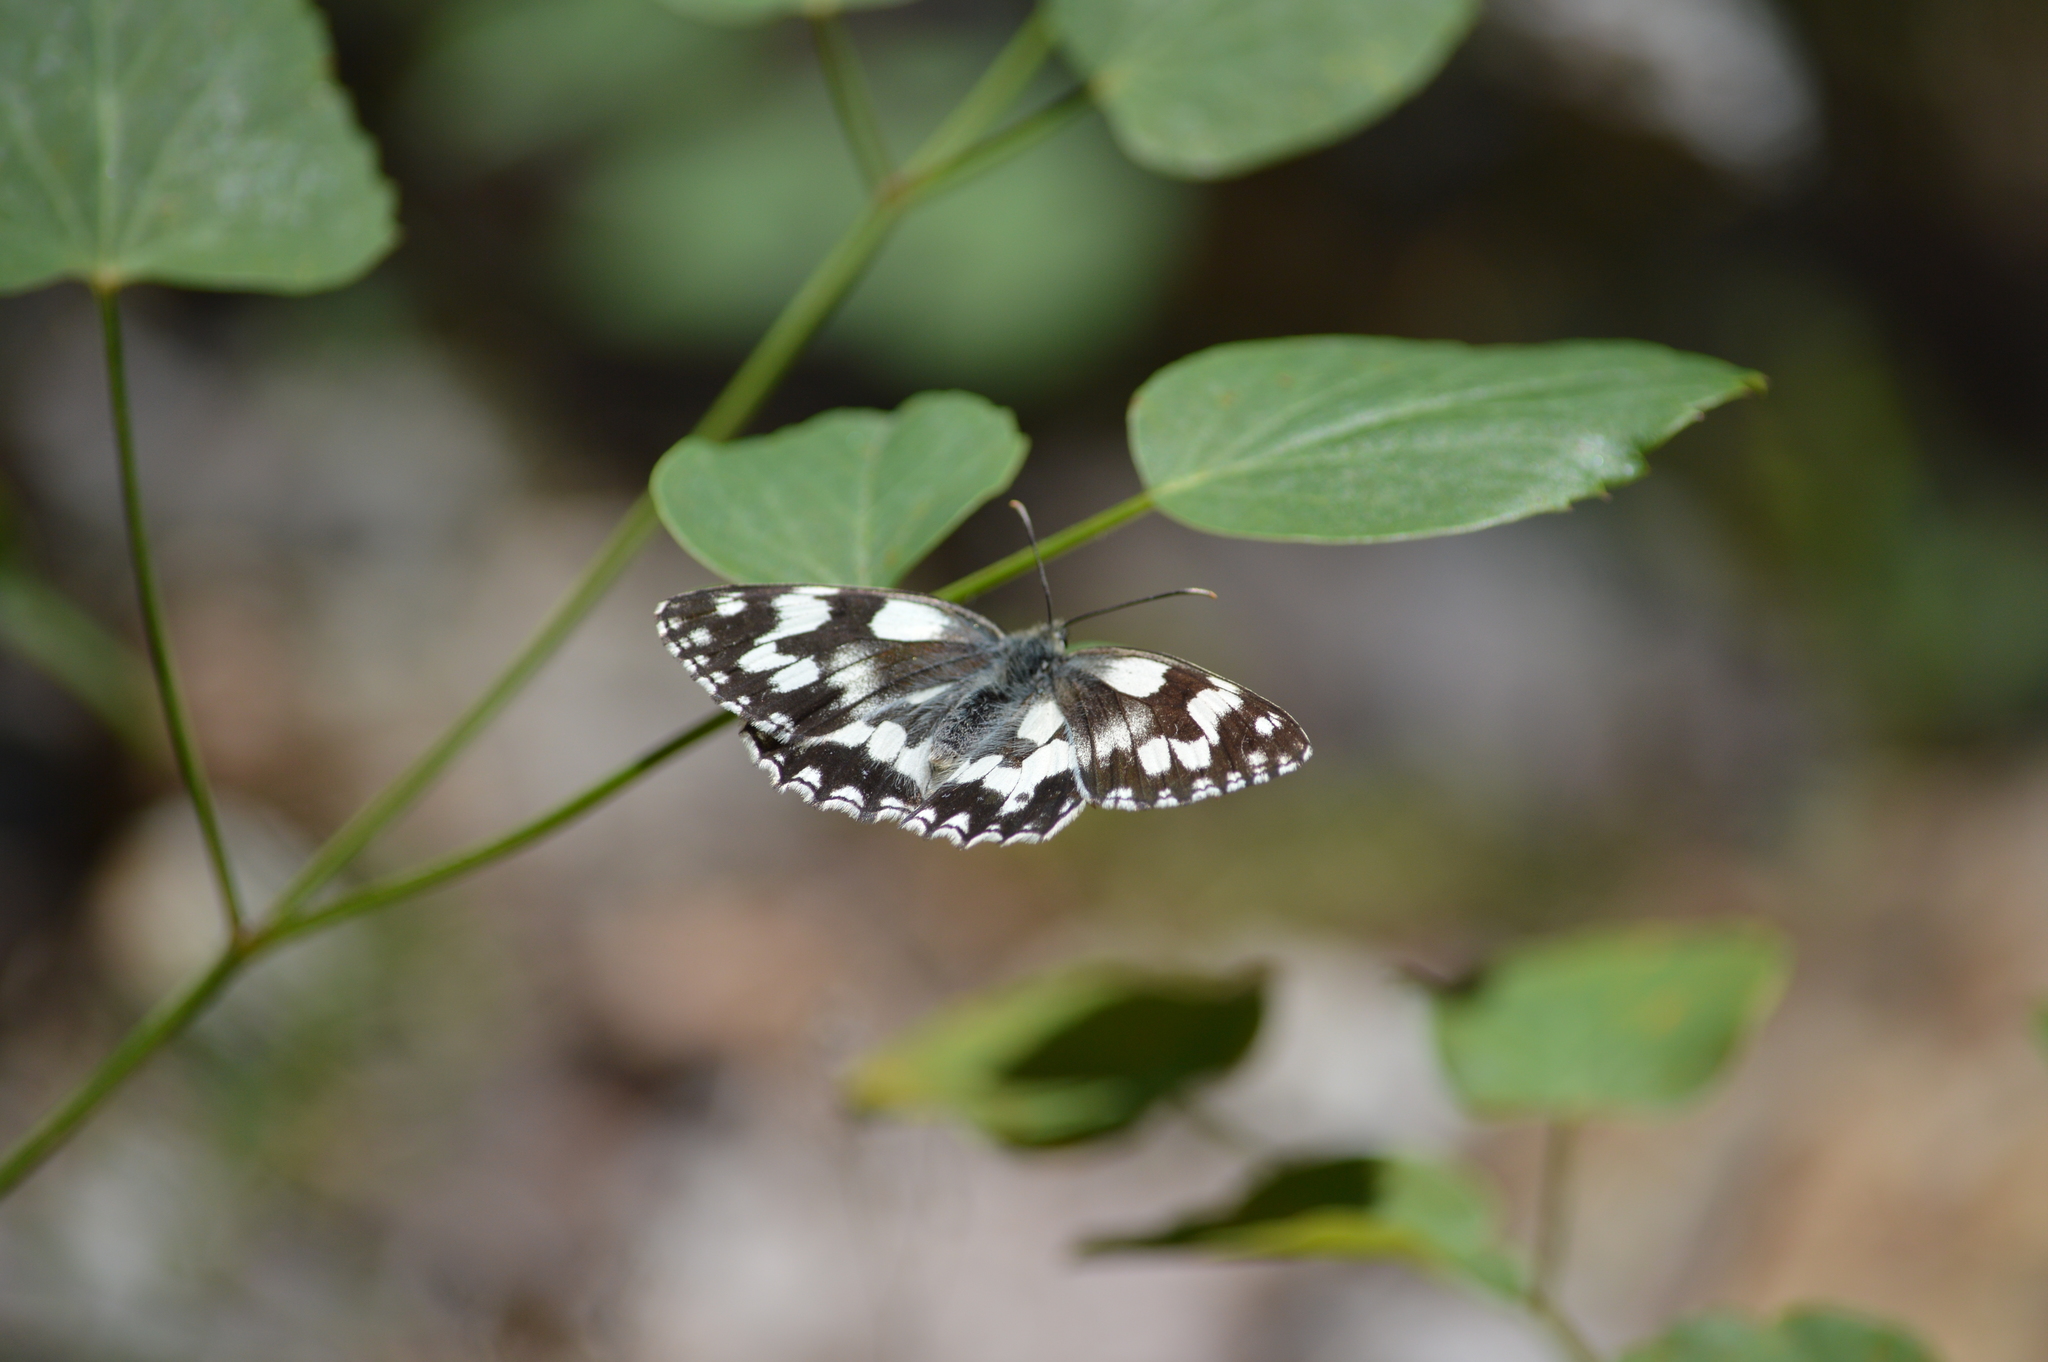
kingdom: Animalia
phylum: Arthropoda
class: Insecta
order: Lepidoptera
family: Nymphalidae
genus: Melanargia
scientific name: Melanargia galathea
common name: Marbled white
